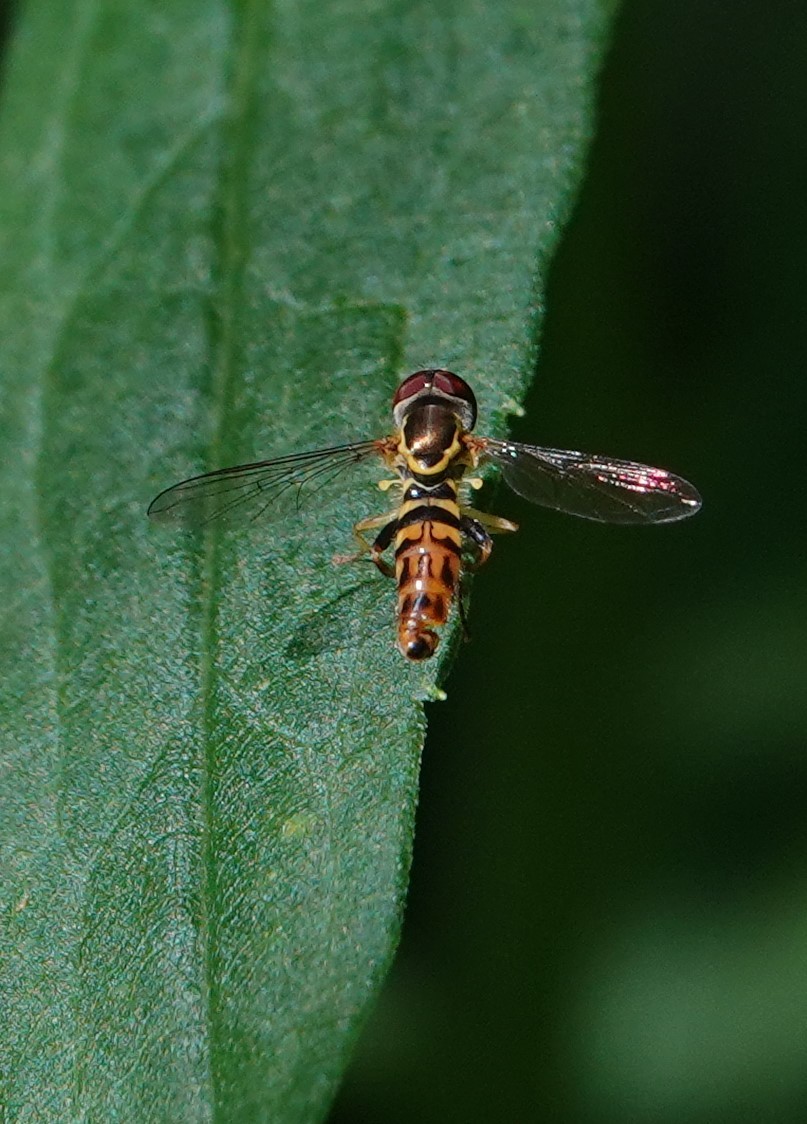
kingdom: Animalia
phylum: Arthropoda
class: Insecta
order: Diptera
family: Syrphidae
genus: Toxomerus
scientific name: Toxomerus geminatus
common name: Eastern calligrapher
